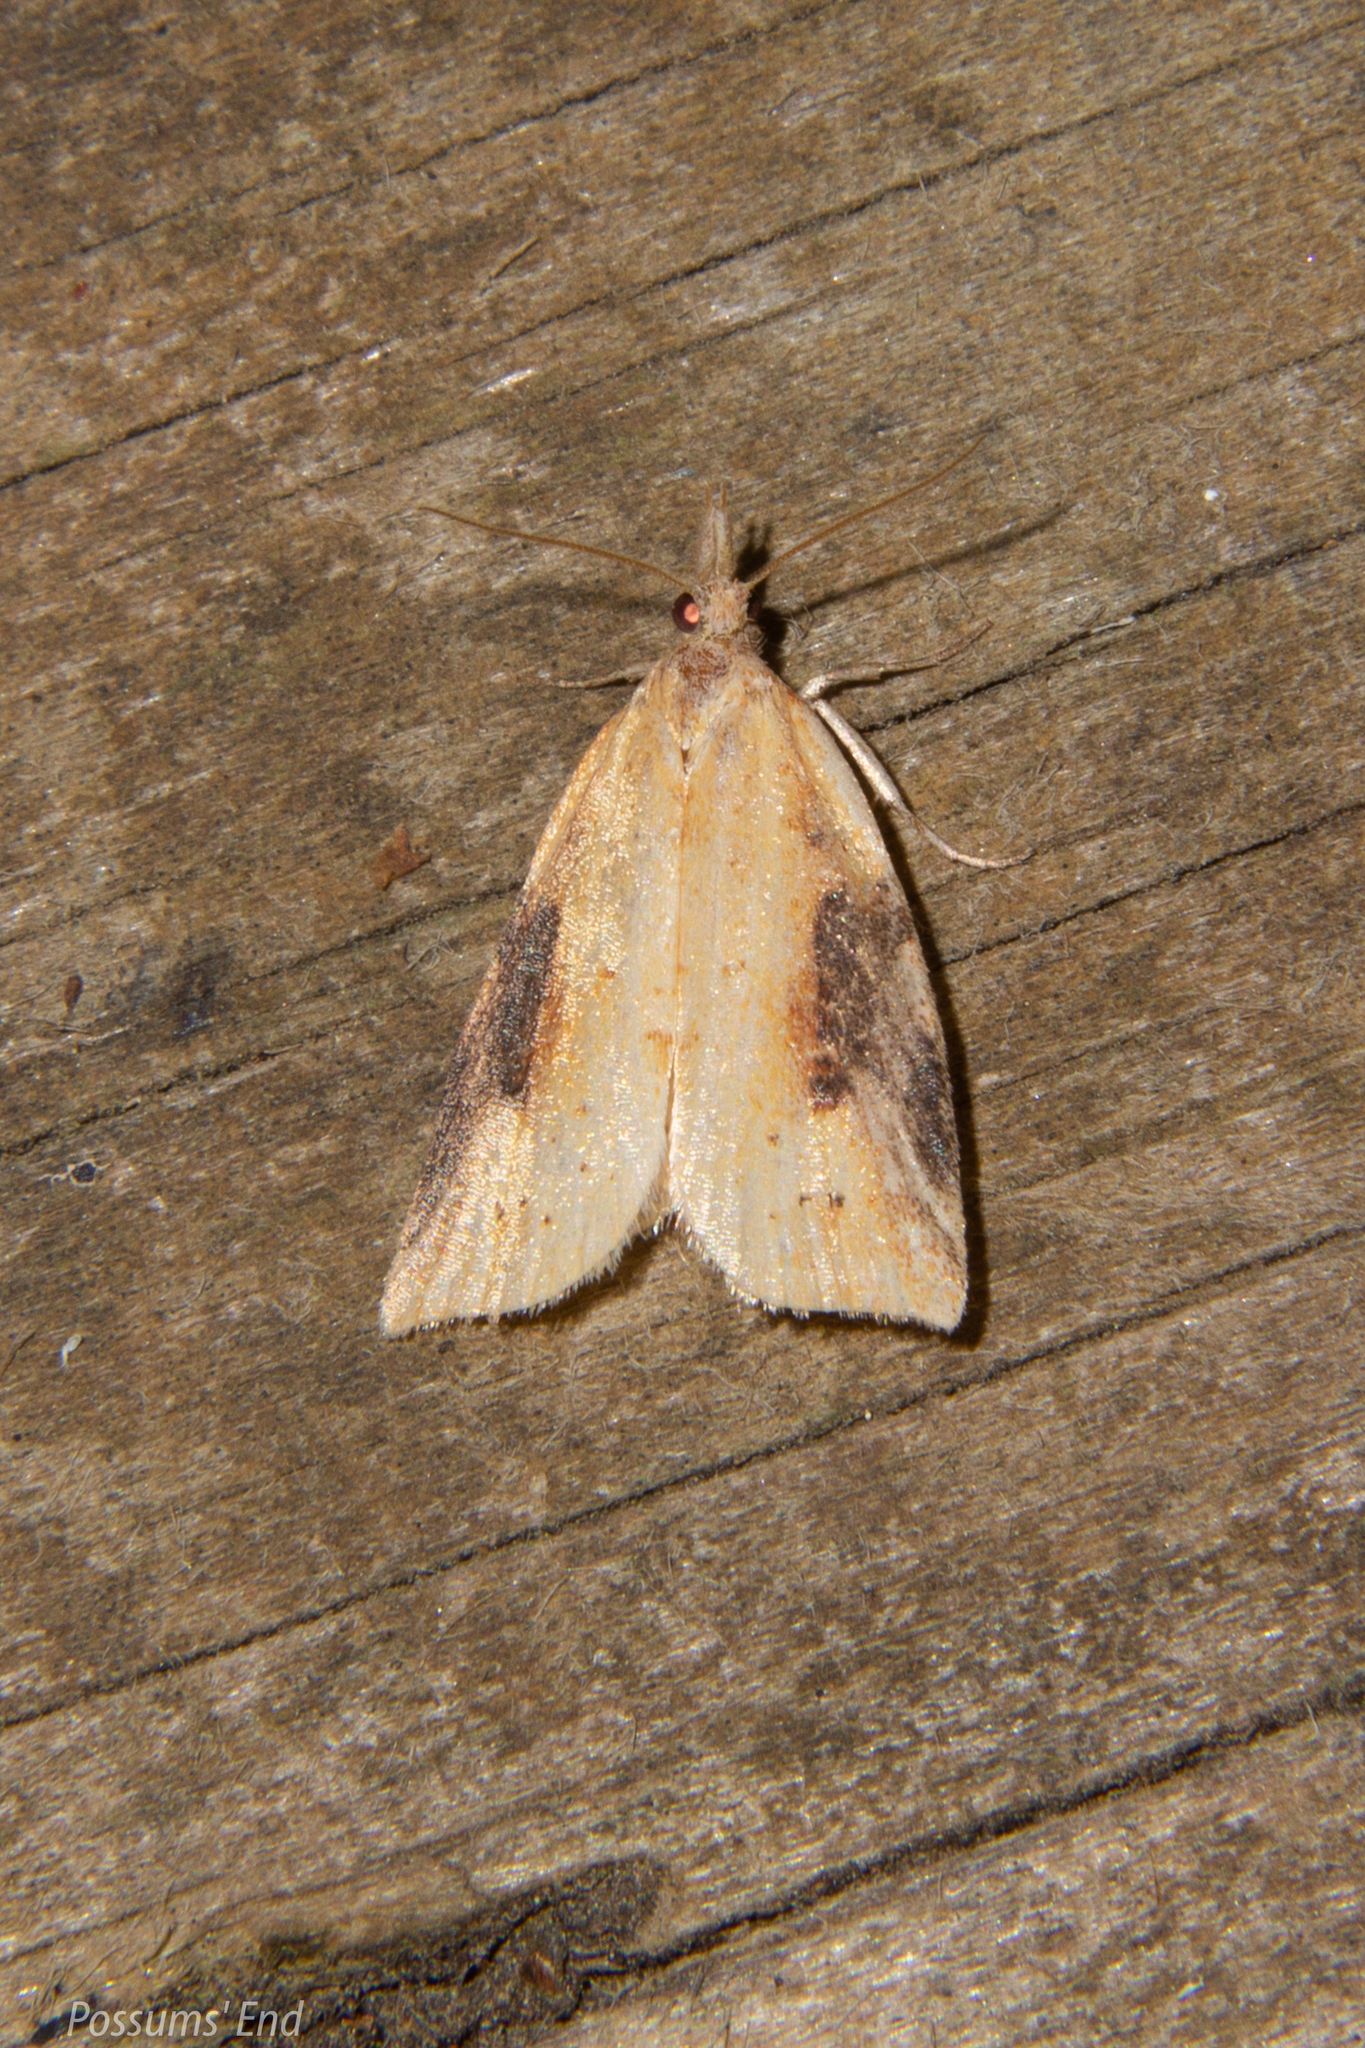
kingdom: Animalia
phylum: Arthropoda
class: Insecta
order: Lepidoptera
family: Tortricidae
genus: Apoctena
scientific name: Apoctena conditana
